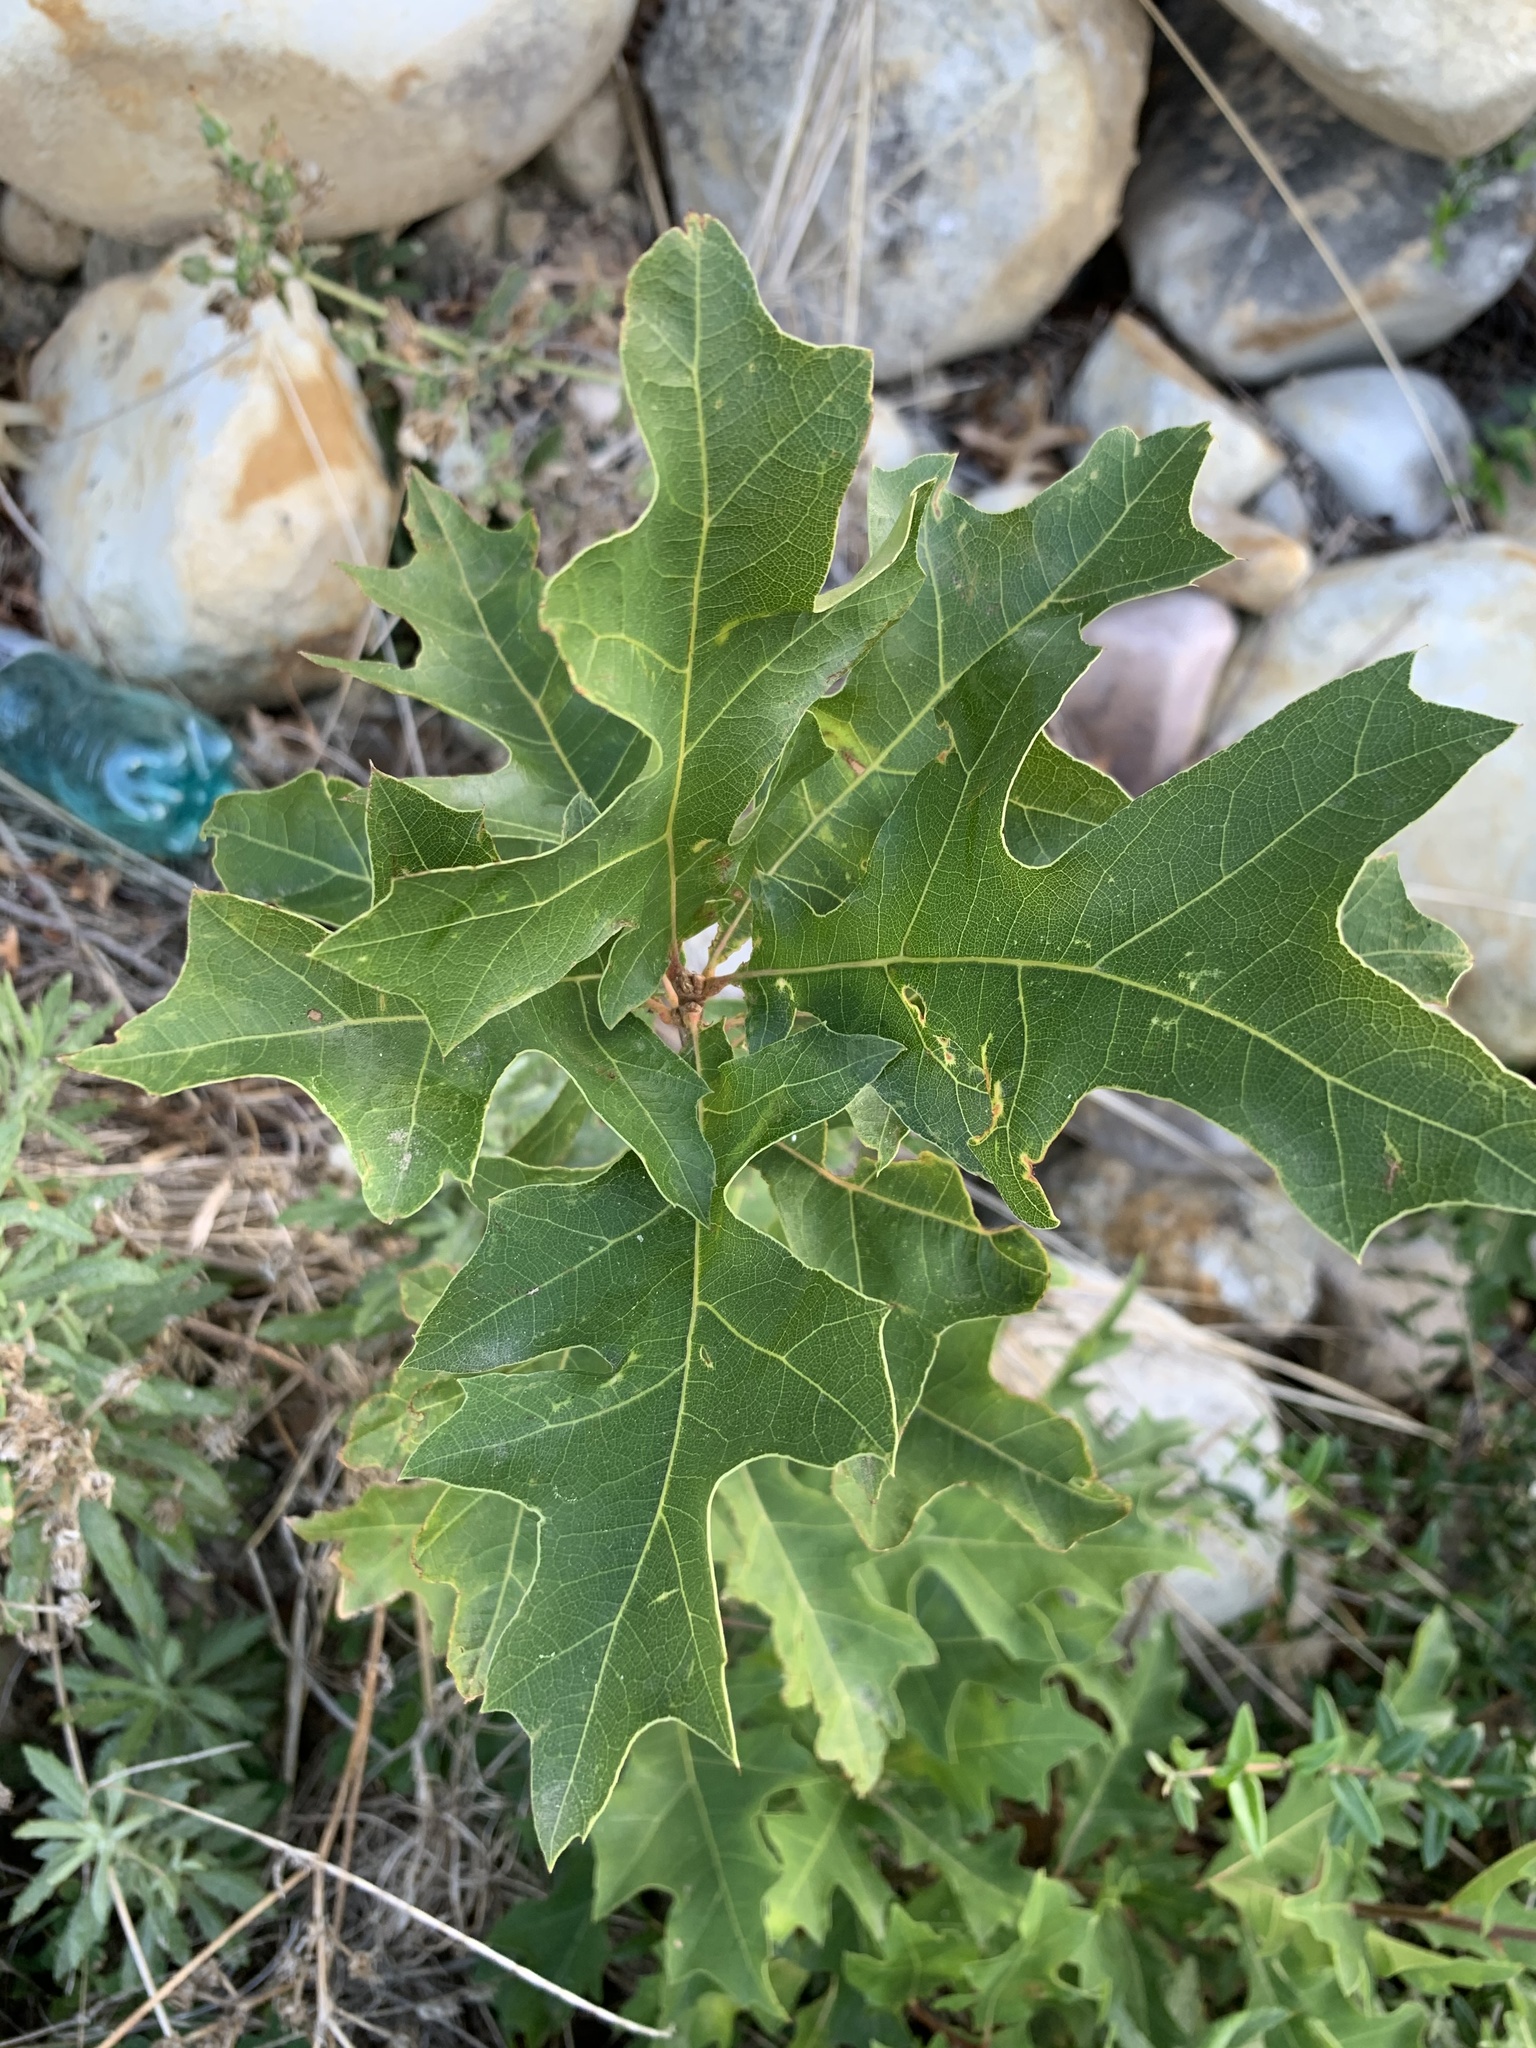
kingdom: Plantae
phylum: Tracheophyta
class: Magnoliopsida
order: Fagales
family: Fagaceae
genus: Quercus
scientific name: Quercus palustris
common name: Pin oak
